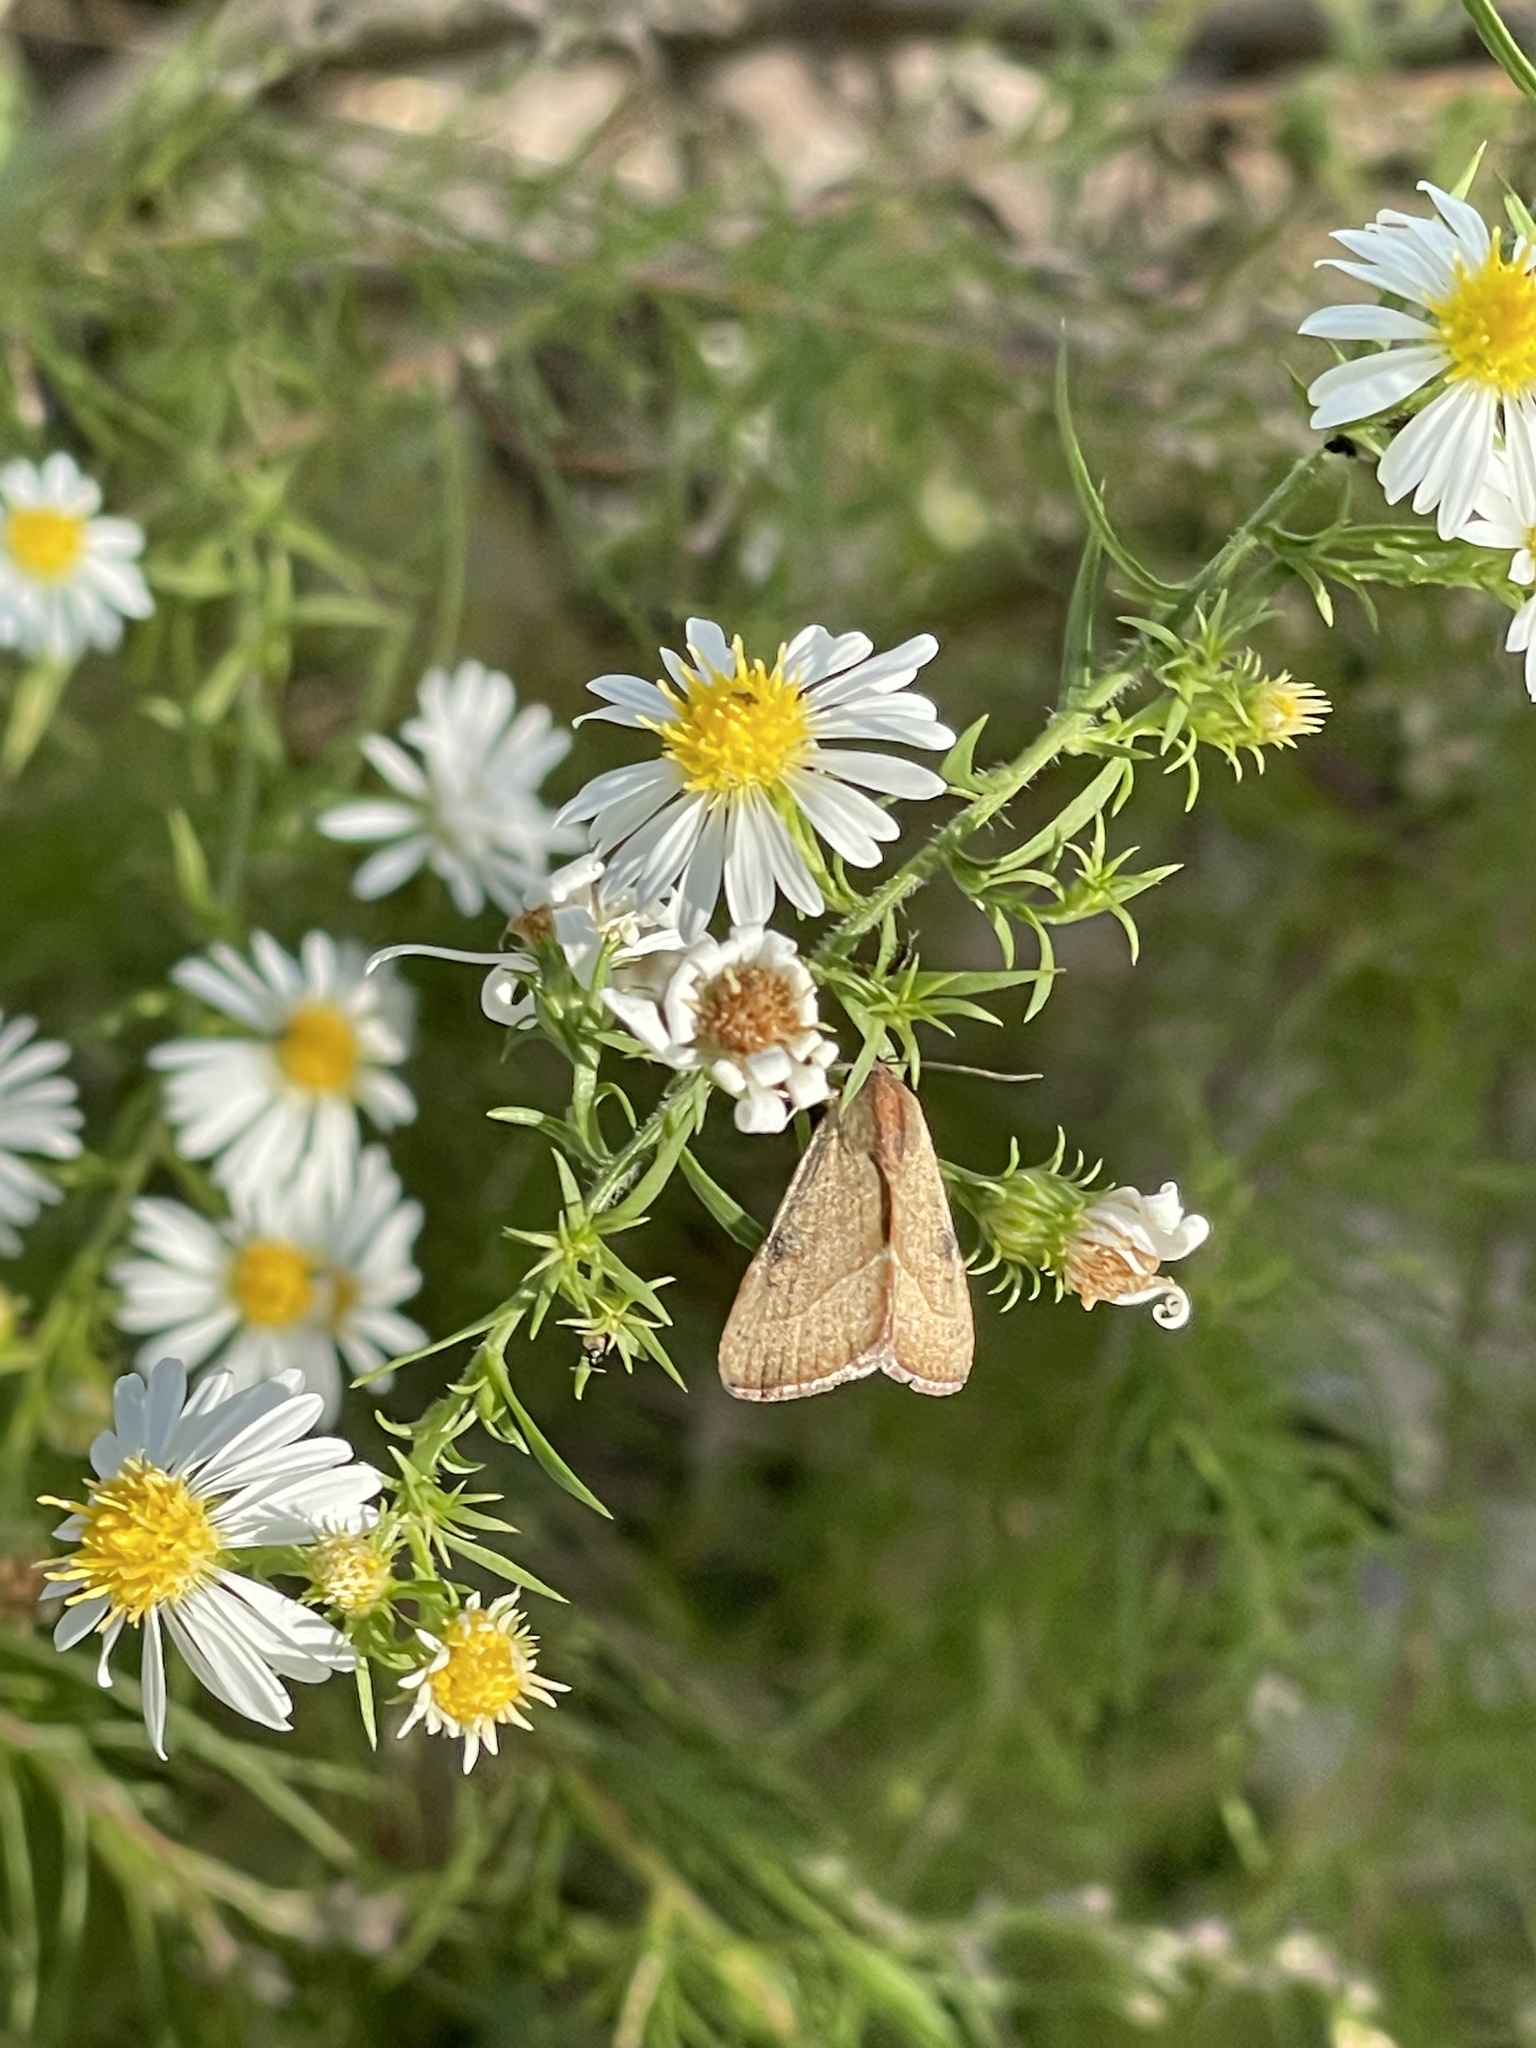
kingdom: Animalia
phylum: Arthropoda
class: Insecta
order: Lepidoptera
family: Noctuidae
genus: Galgula
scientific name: Galgula partita
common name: Wedgeling
